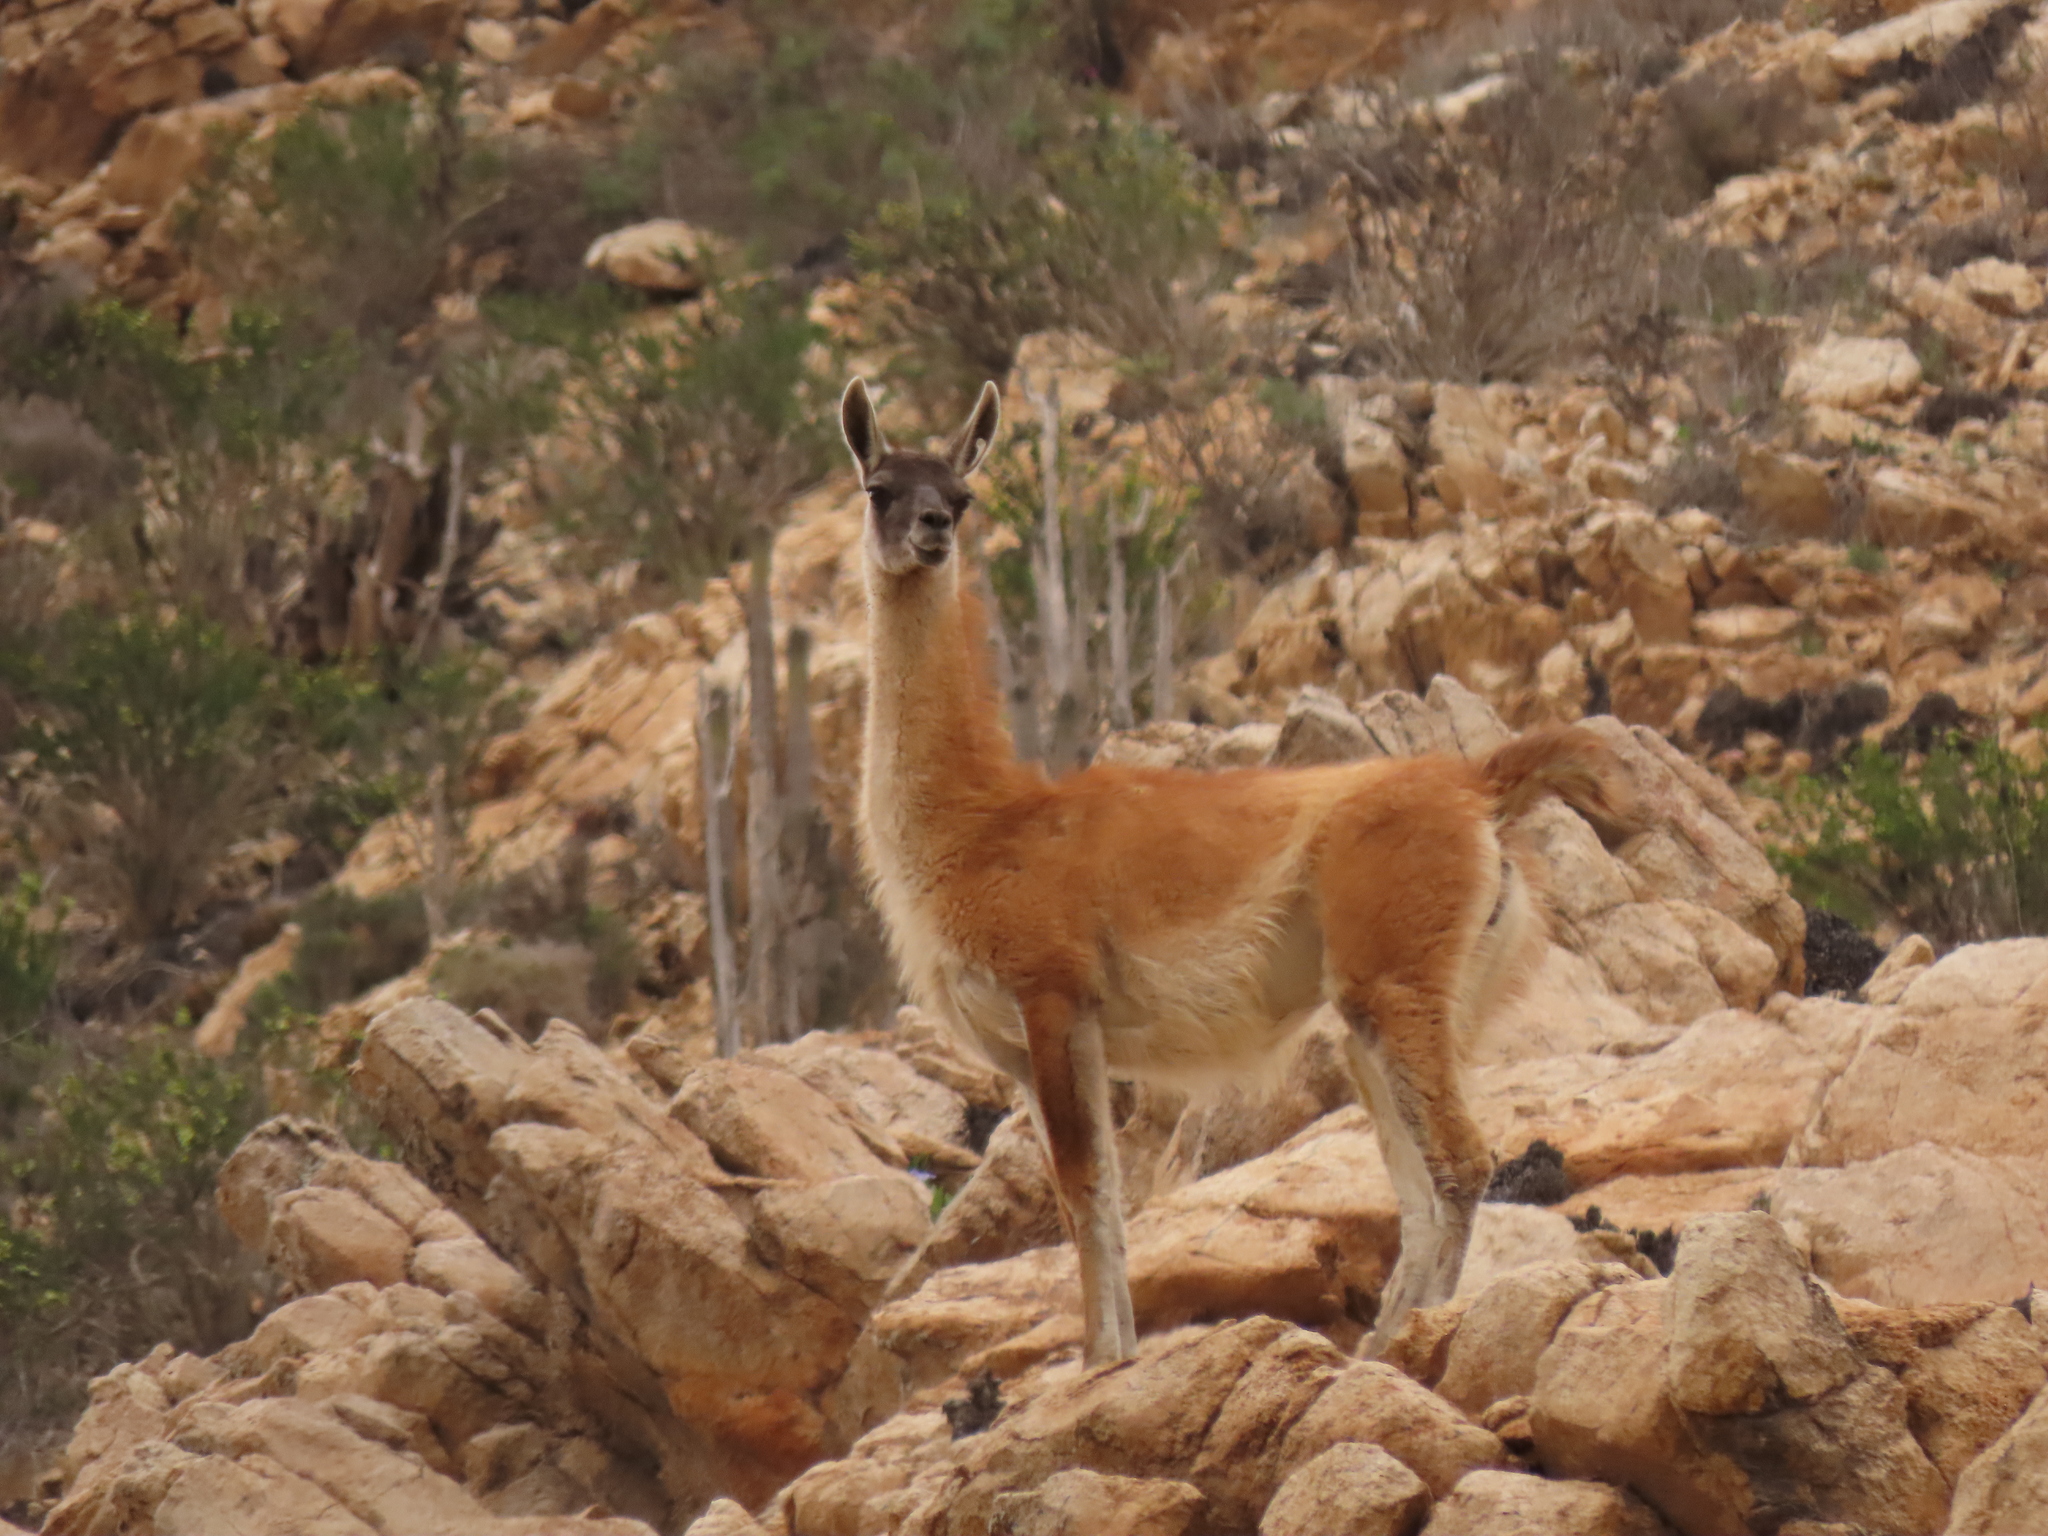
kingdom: Animalia
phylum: Chordata
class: Mammalia
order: Artiodactyla
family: Camelidae
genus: Lama
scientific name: Lama glama
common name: Llama
